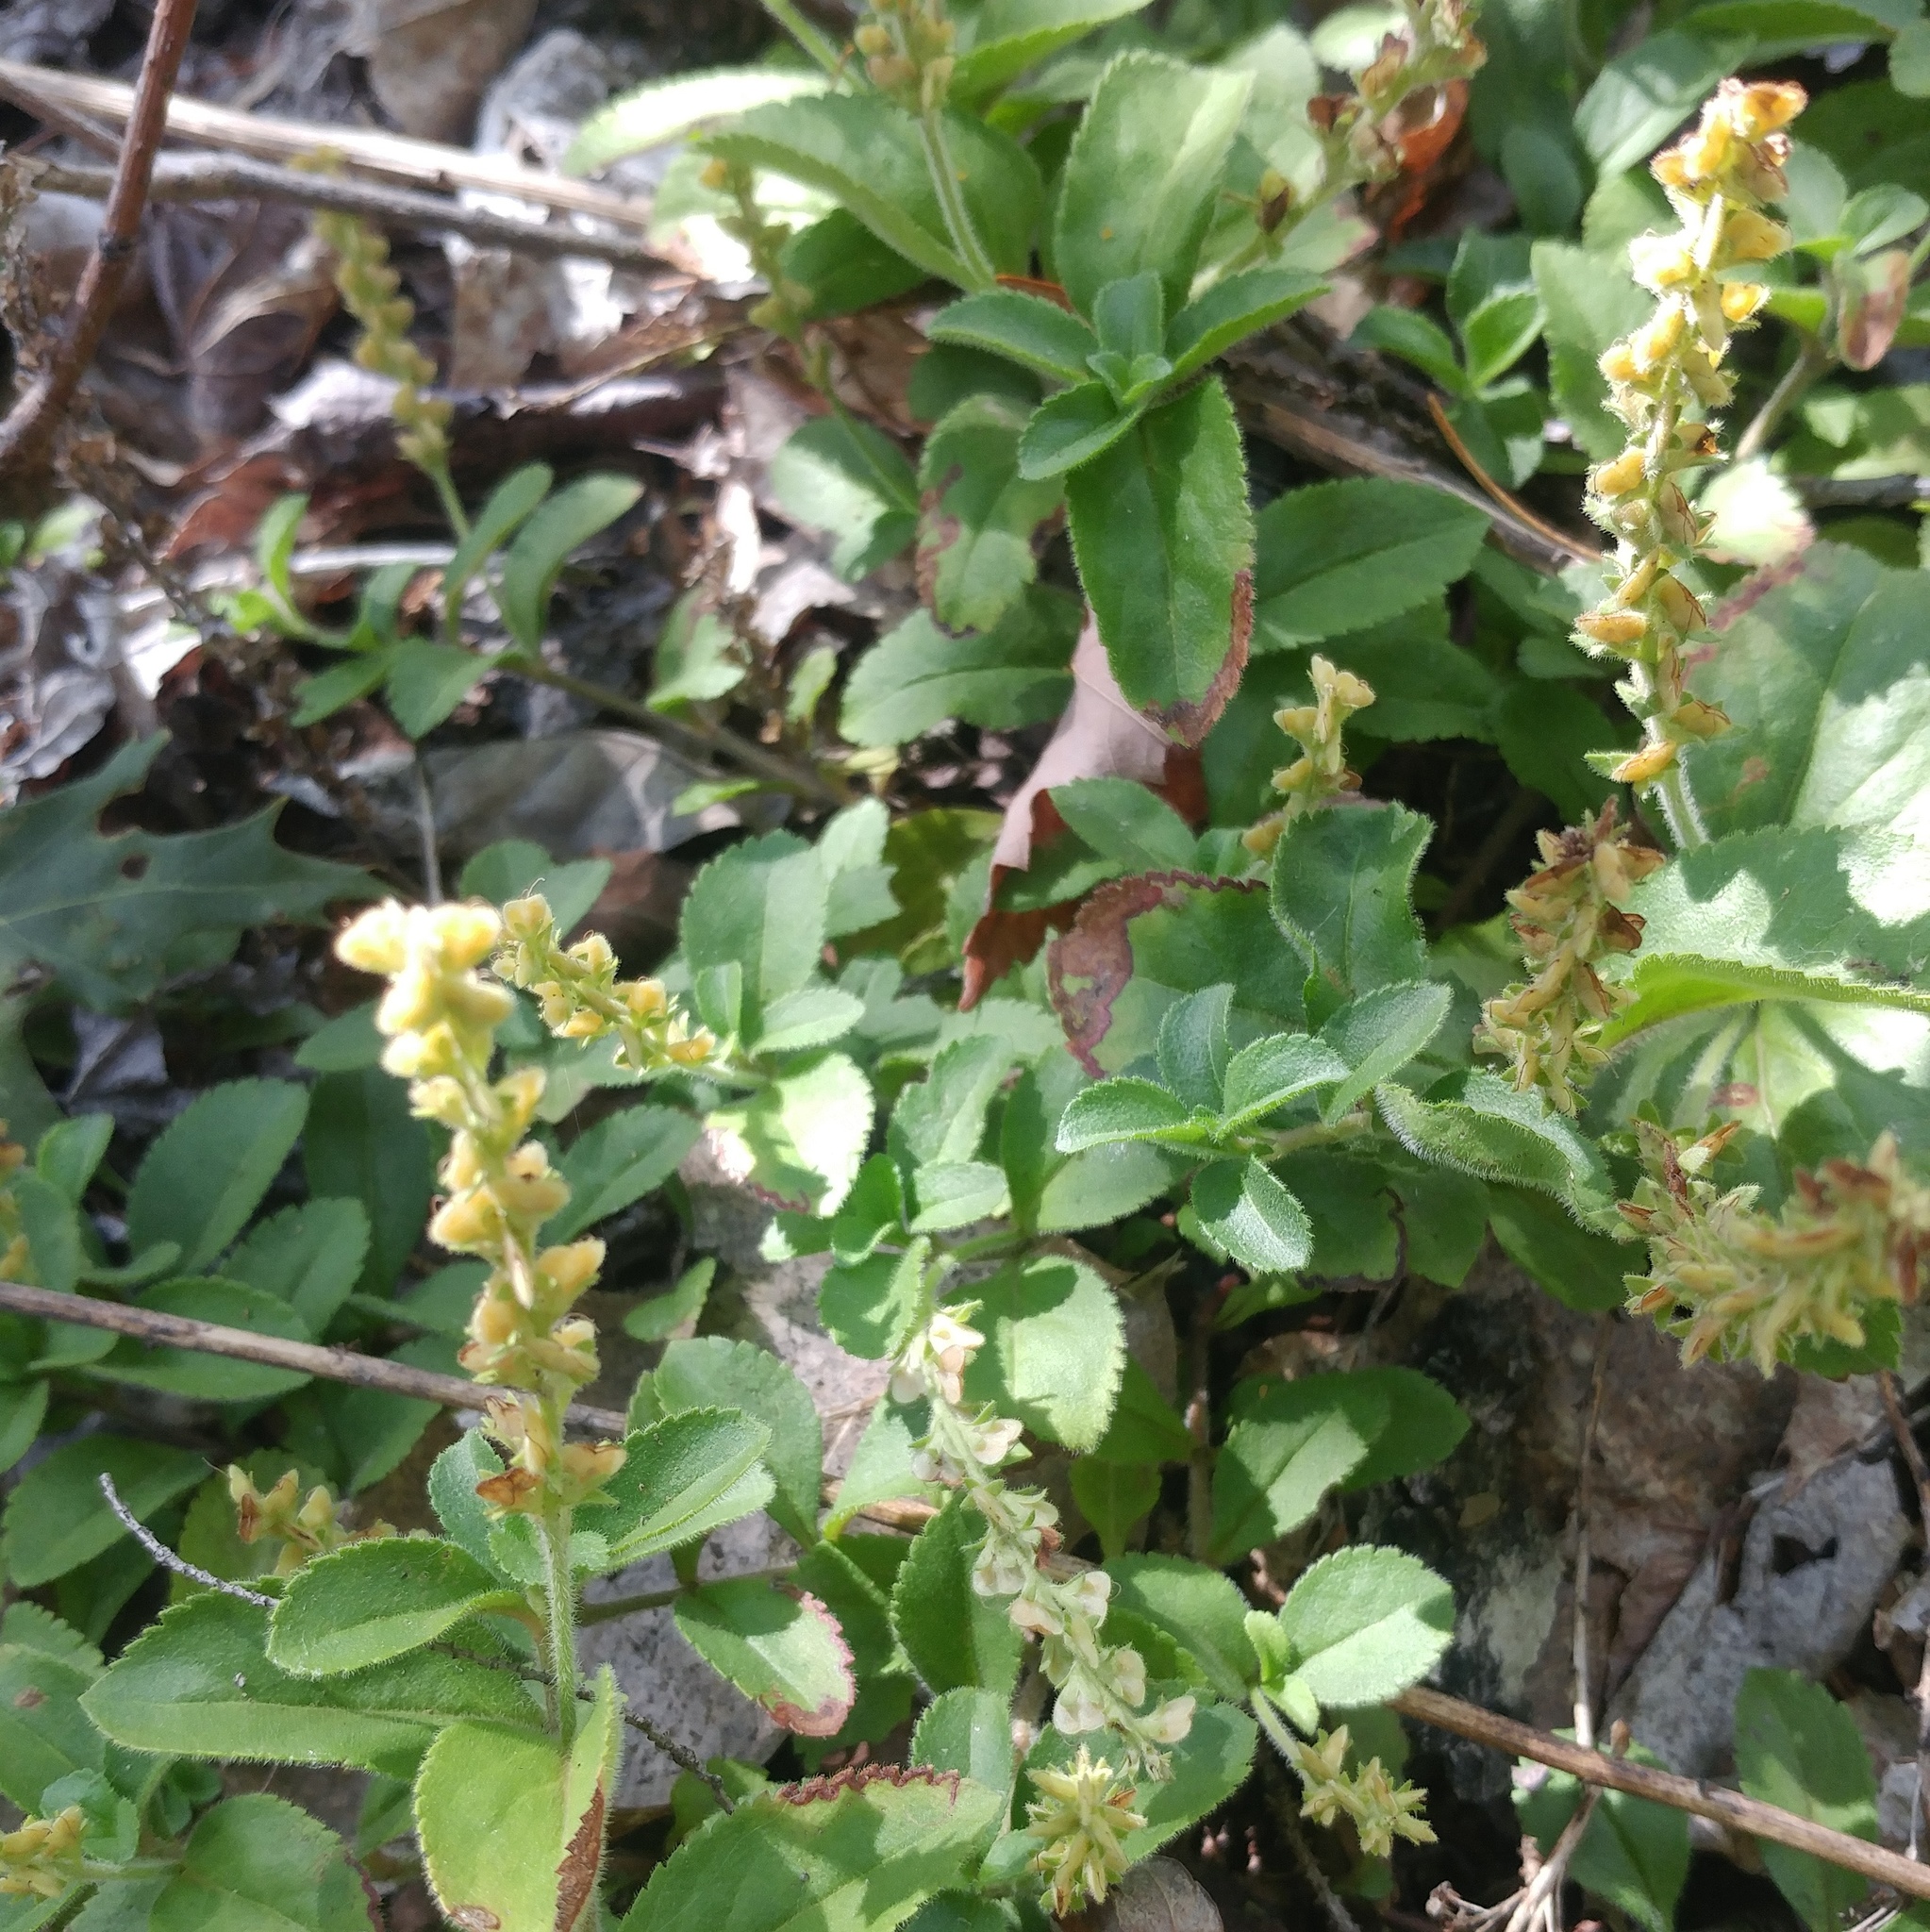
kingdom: Plantae
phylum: Tracheophyta
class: Magnoliopsida
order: Lamiales
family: Plantaginaceae
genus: Veronica
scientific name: Veronica officinalis
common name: Common speedwell
